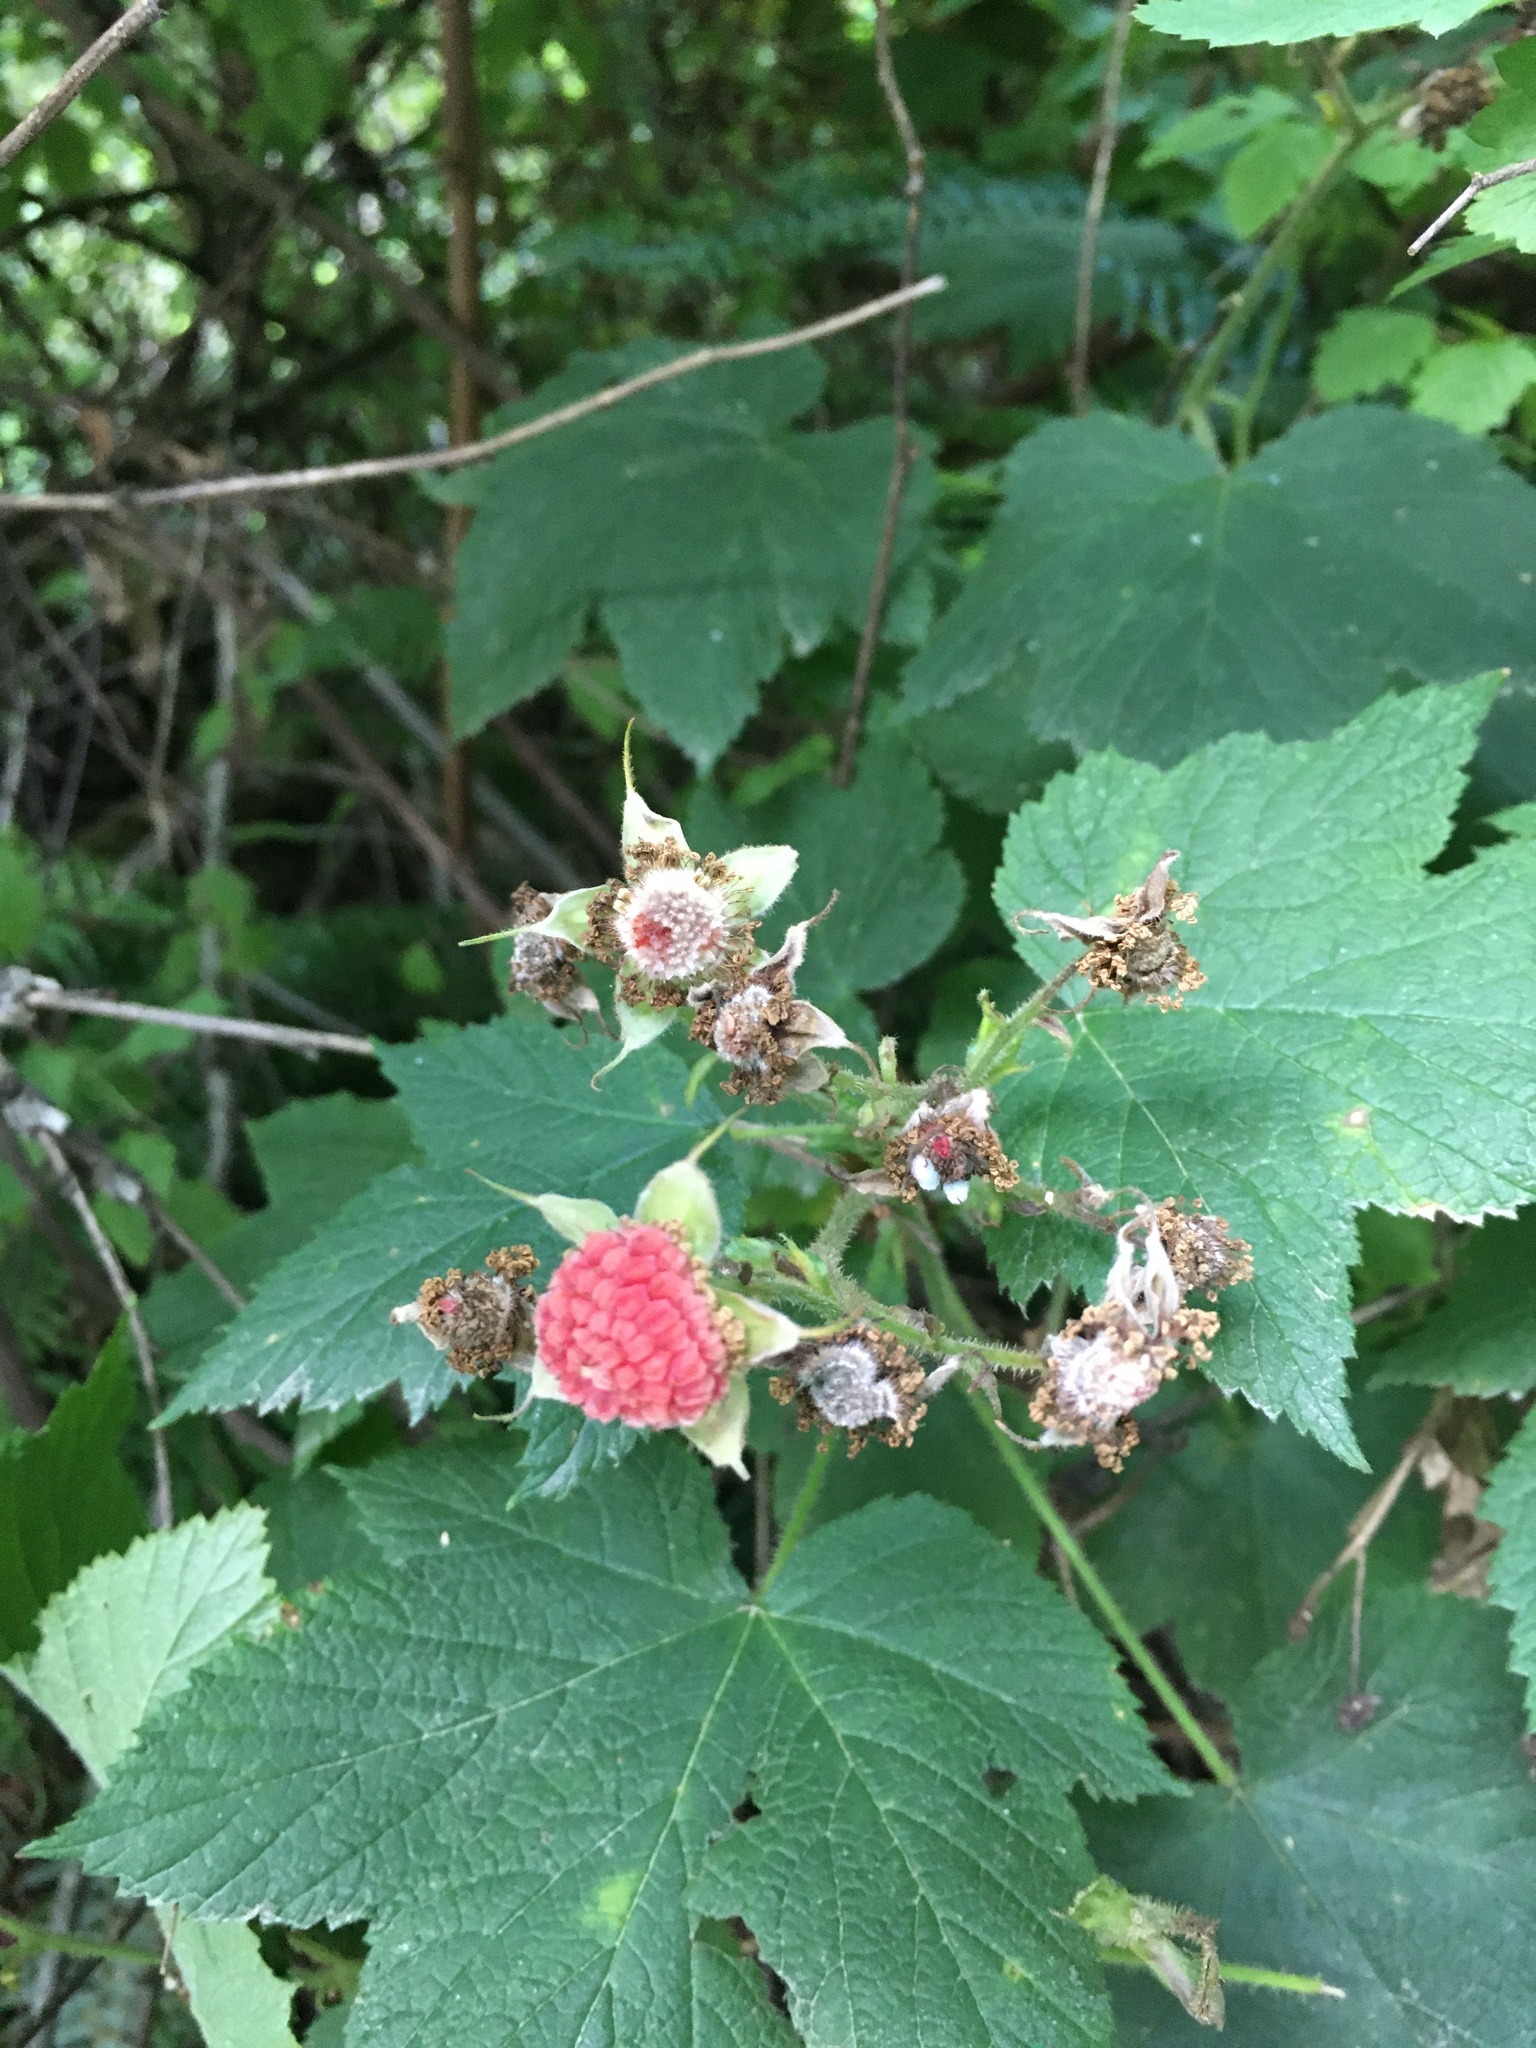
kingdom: Plantae
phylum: Tracheophyta
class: Magnoliopsida
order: Rosales
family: Rosaceae
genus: Rubus
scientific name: Rubus parviflorus
